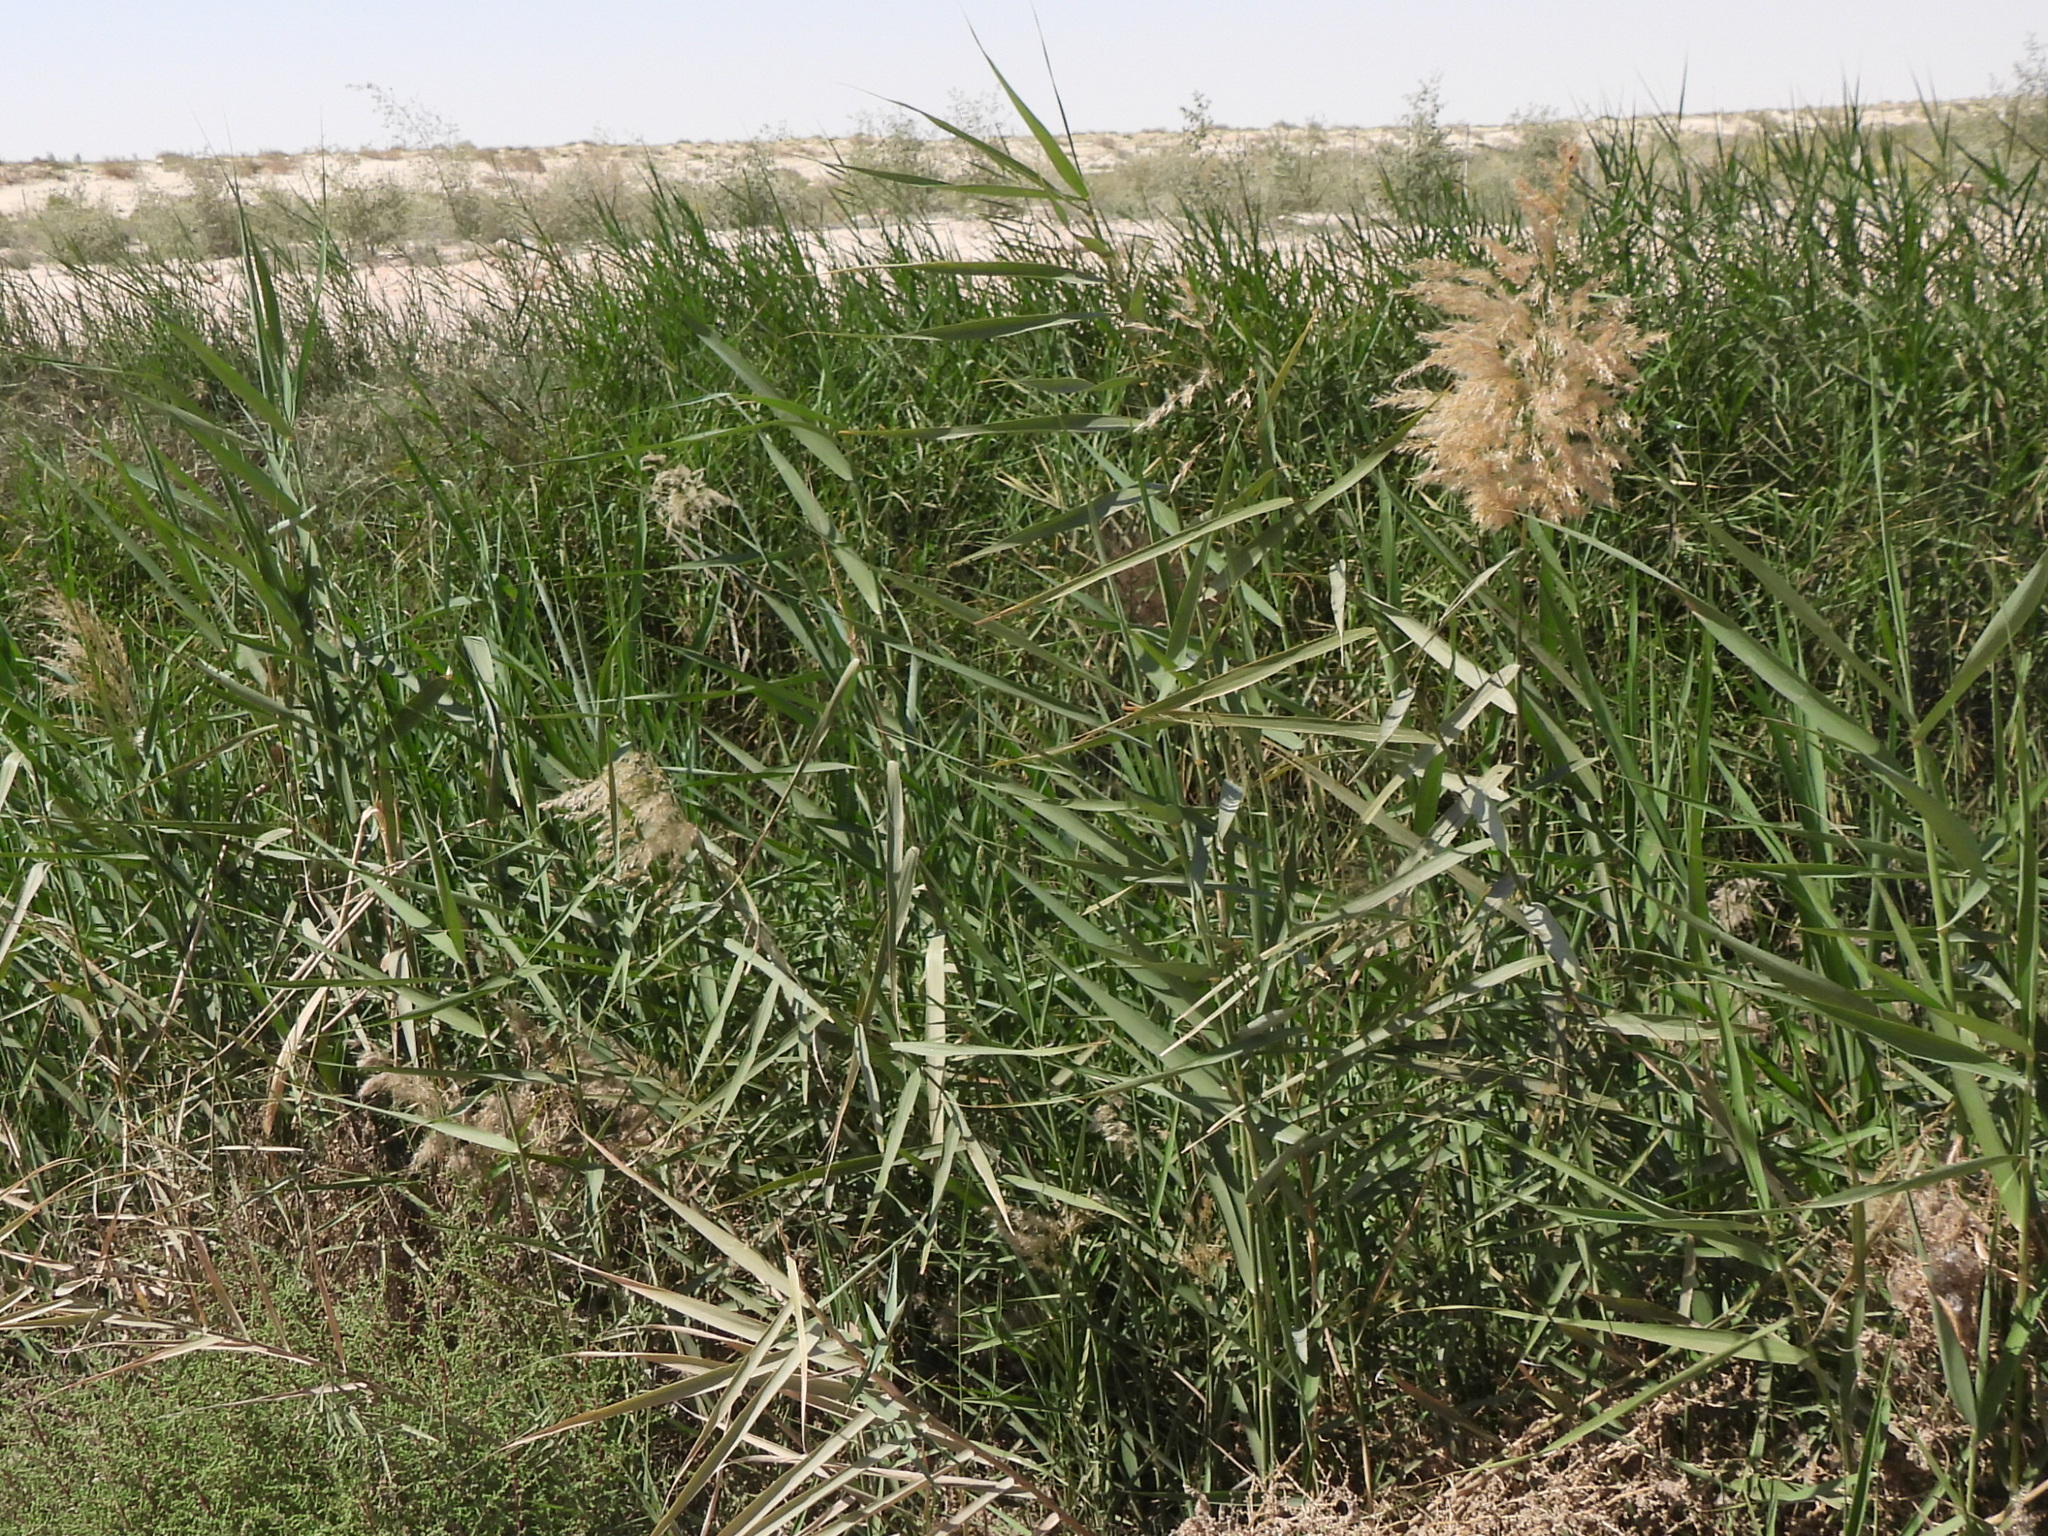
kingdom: Plantae
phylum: Tracheophyta
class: Liliopsida
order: Poales
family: Poaceae
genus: Phragmites
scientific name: Phragmites australis
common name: Common reed
